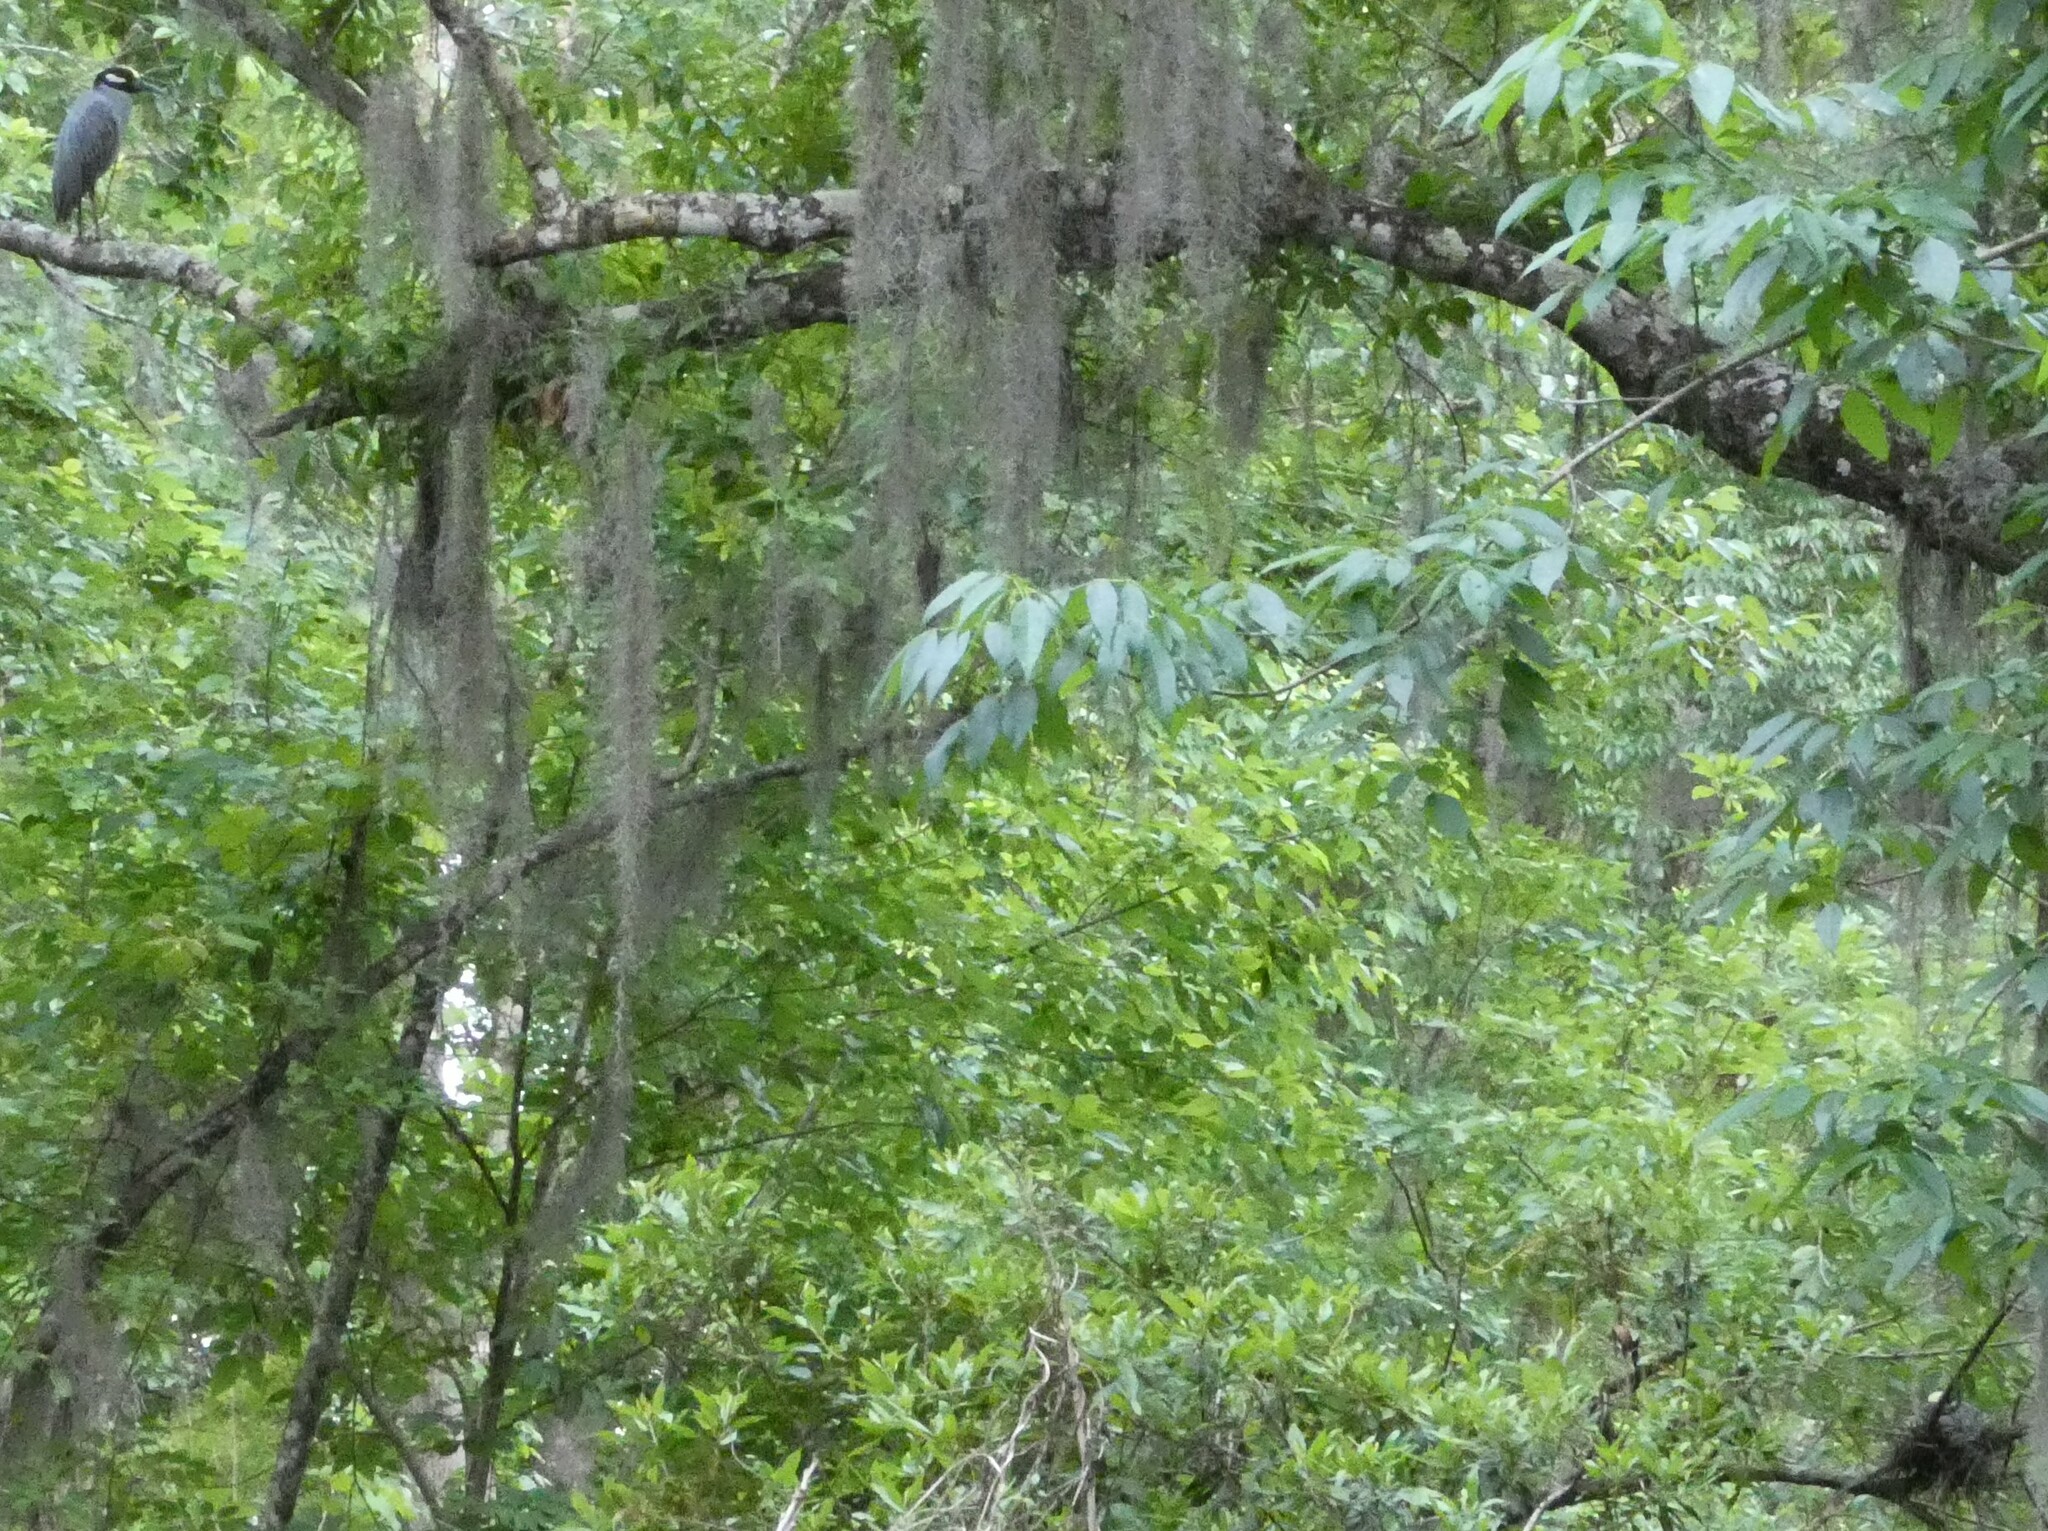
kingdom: Animalia
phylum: Chordata
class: Aves
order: Pelecaniformes
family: Ardeidae
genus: Nyctanassa
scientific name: Nyctanassa violacea
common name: Yellow-crowned night heron
